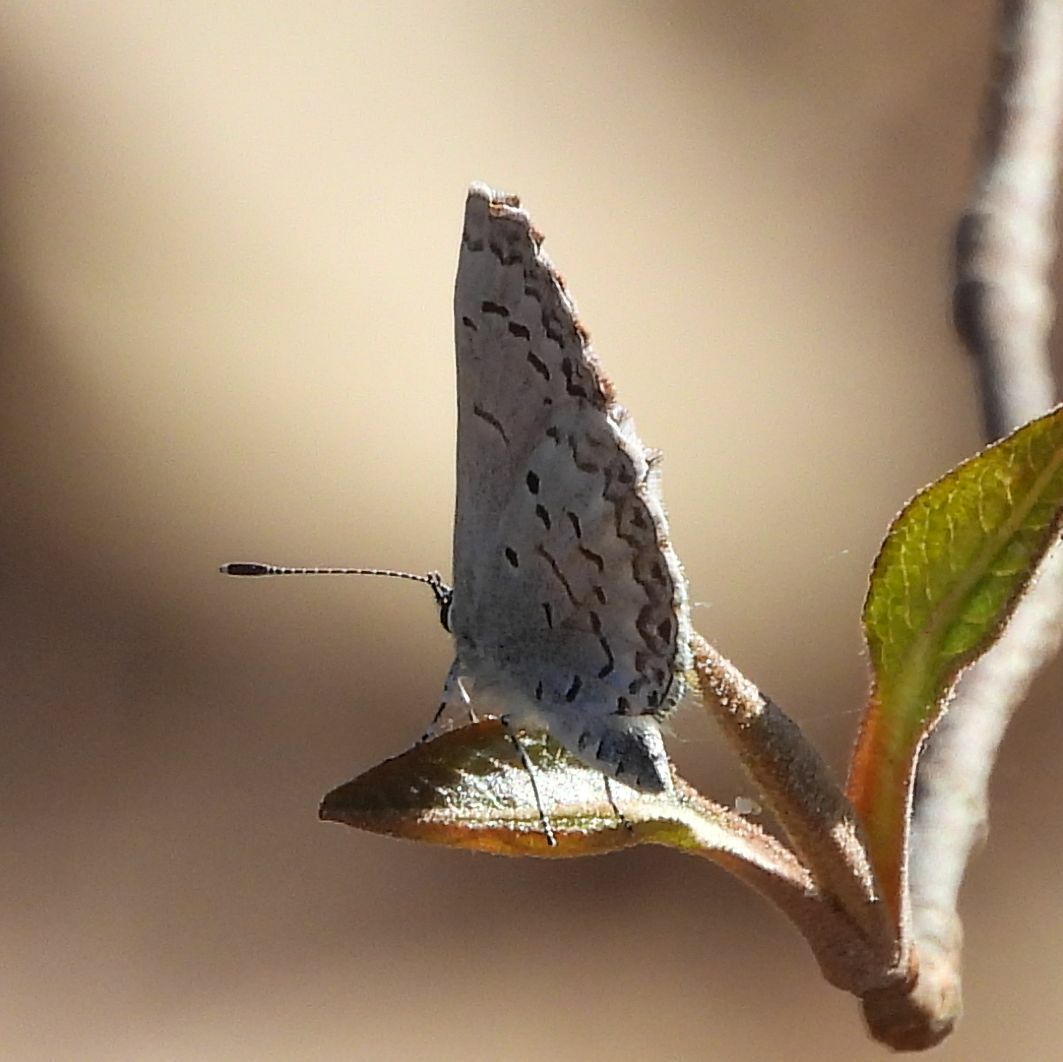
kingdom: Animalia
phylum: Arthropoda
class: Insecta
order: Lepidoptera
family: Lycaenidae
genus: Celastrina
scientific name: Celastrina lucia
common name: Lucia azure
